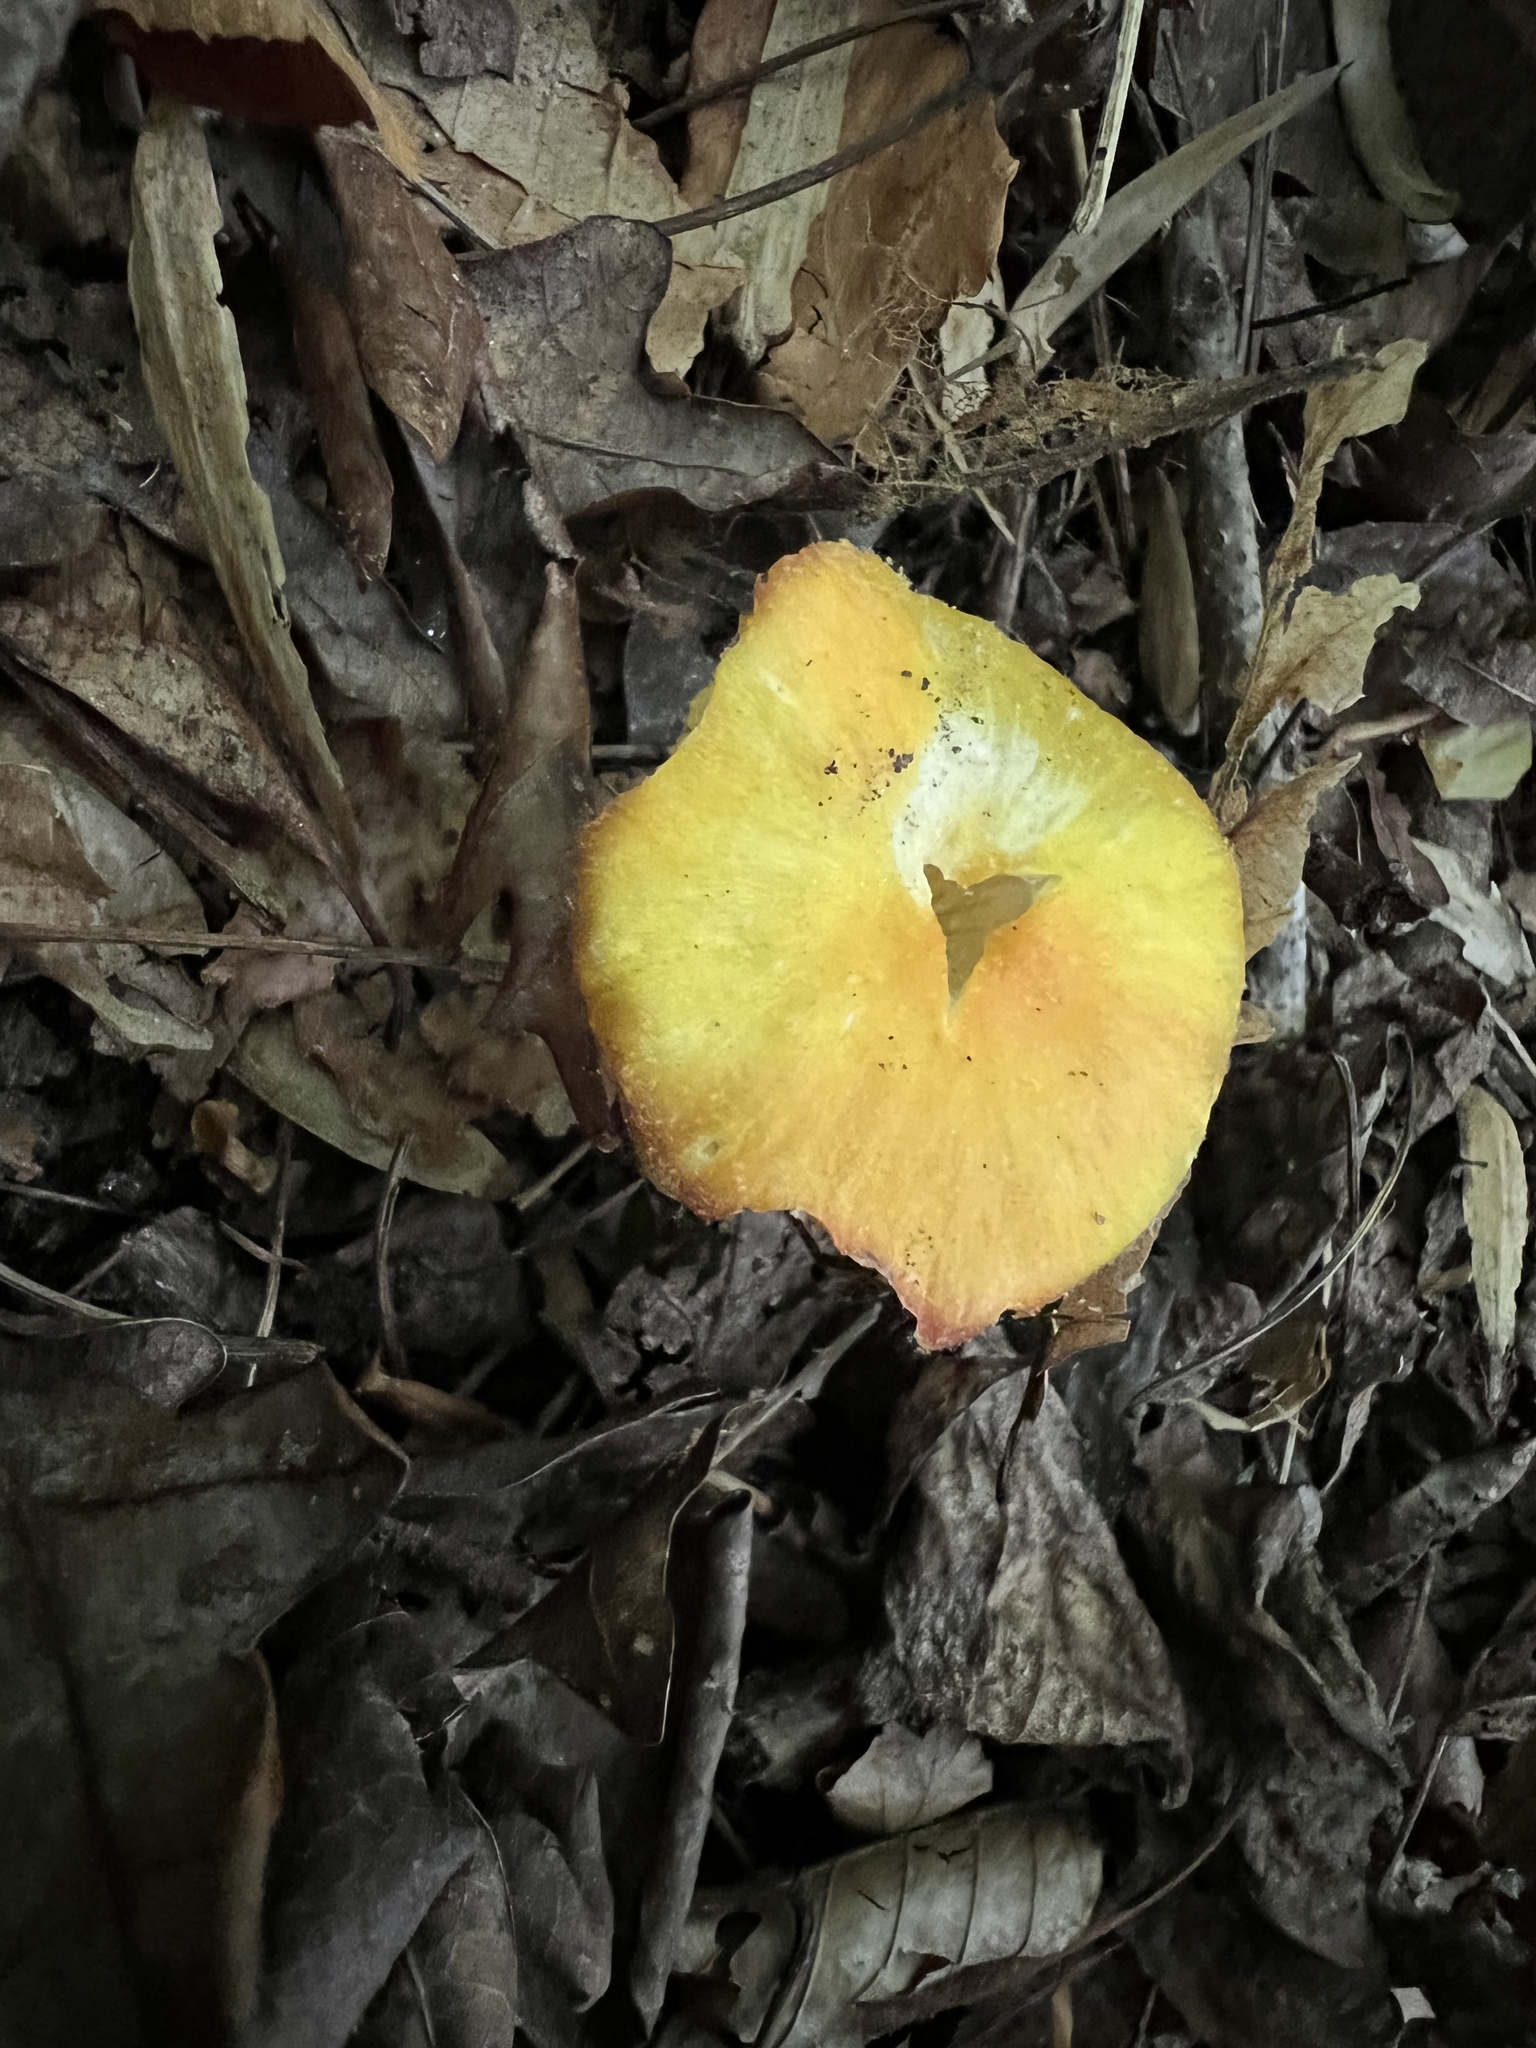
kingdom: Fungi
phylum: Basidiomycota
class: Agaricomycetes
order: Agaricales
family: Hygrophoraceae
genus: Hygrocybe
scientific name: Hygrocybe chlorophana
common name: Golden waxcap
